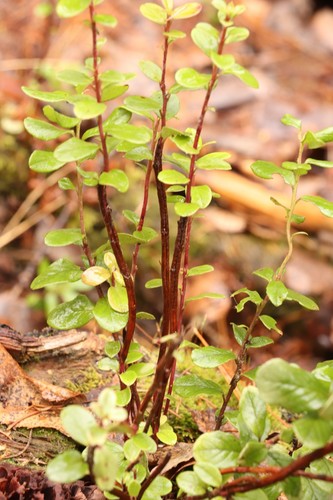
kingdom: Fungi
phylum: Basidiomycota
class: Pucciniomycetes
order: Pucciniales
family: Pucciniastraceae
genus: Calyptospora
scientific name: Calyptospora columnaris
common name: Huckleberry broom rust fungus
